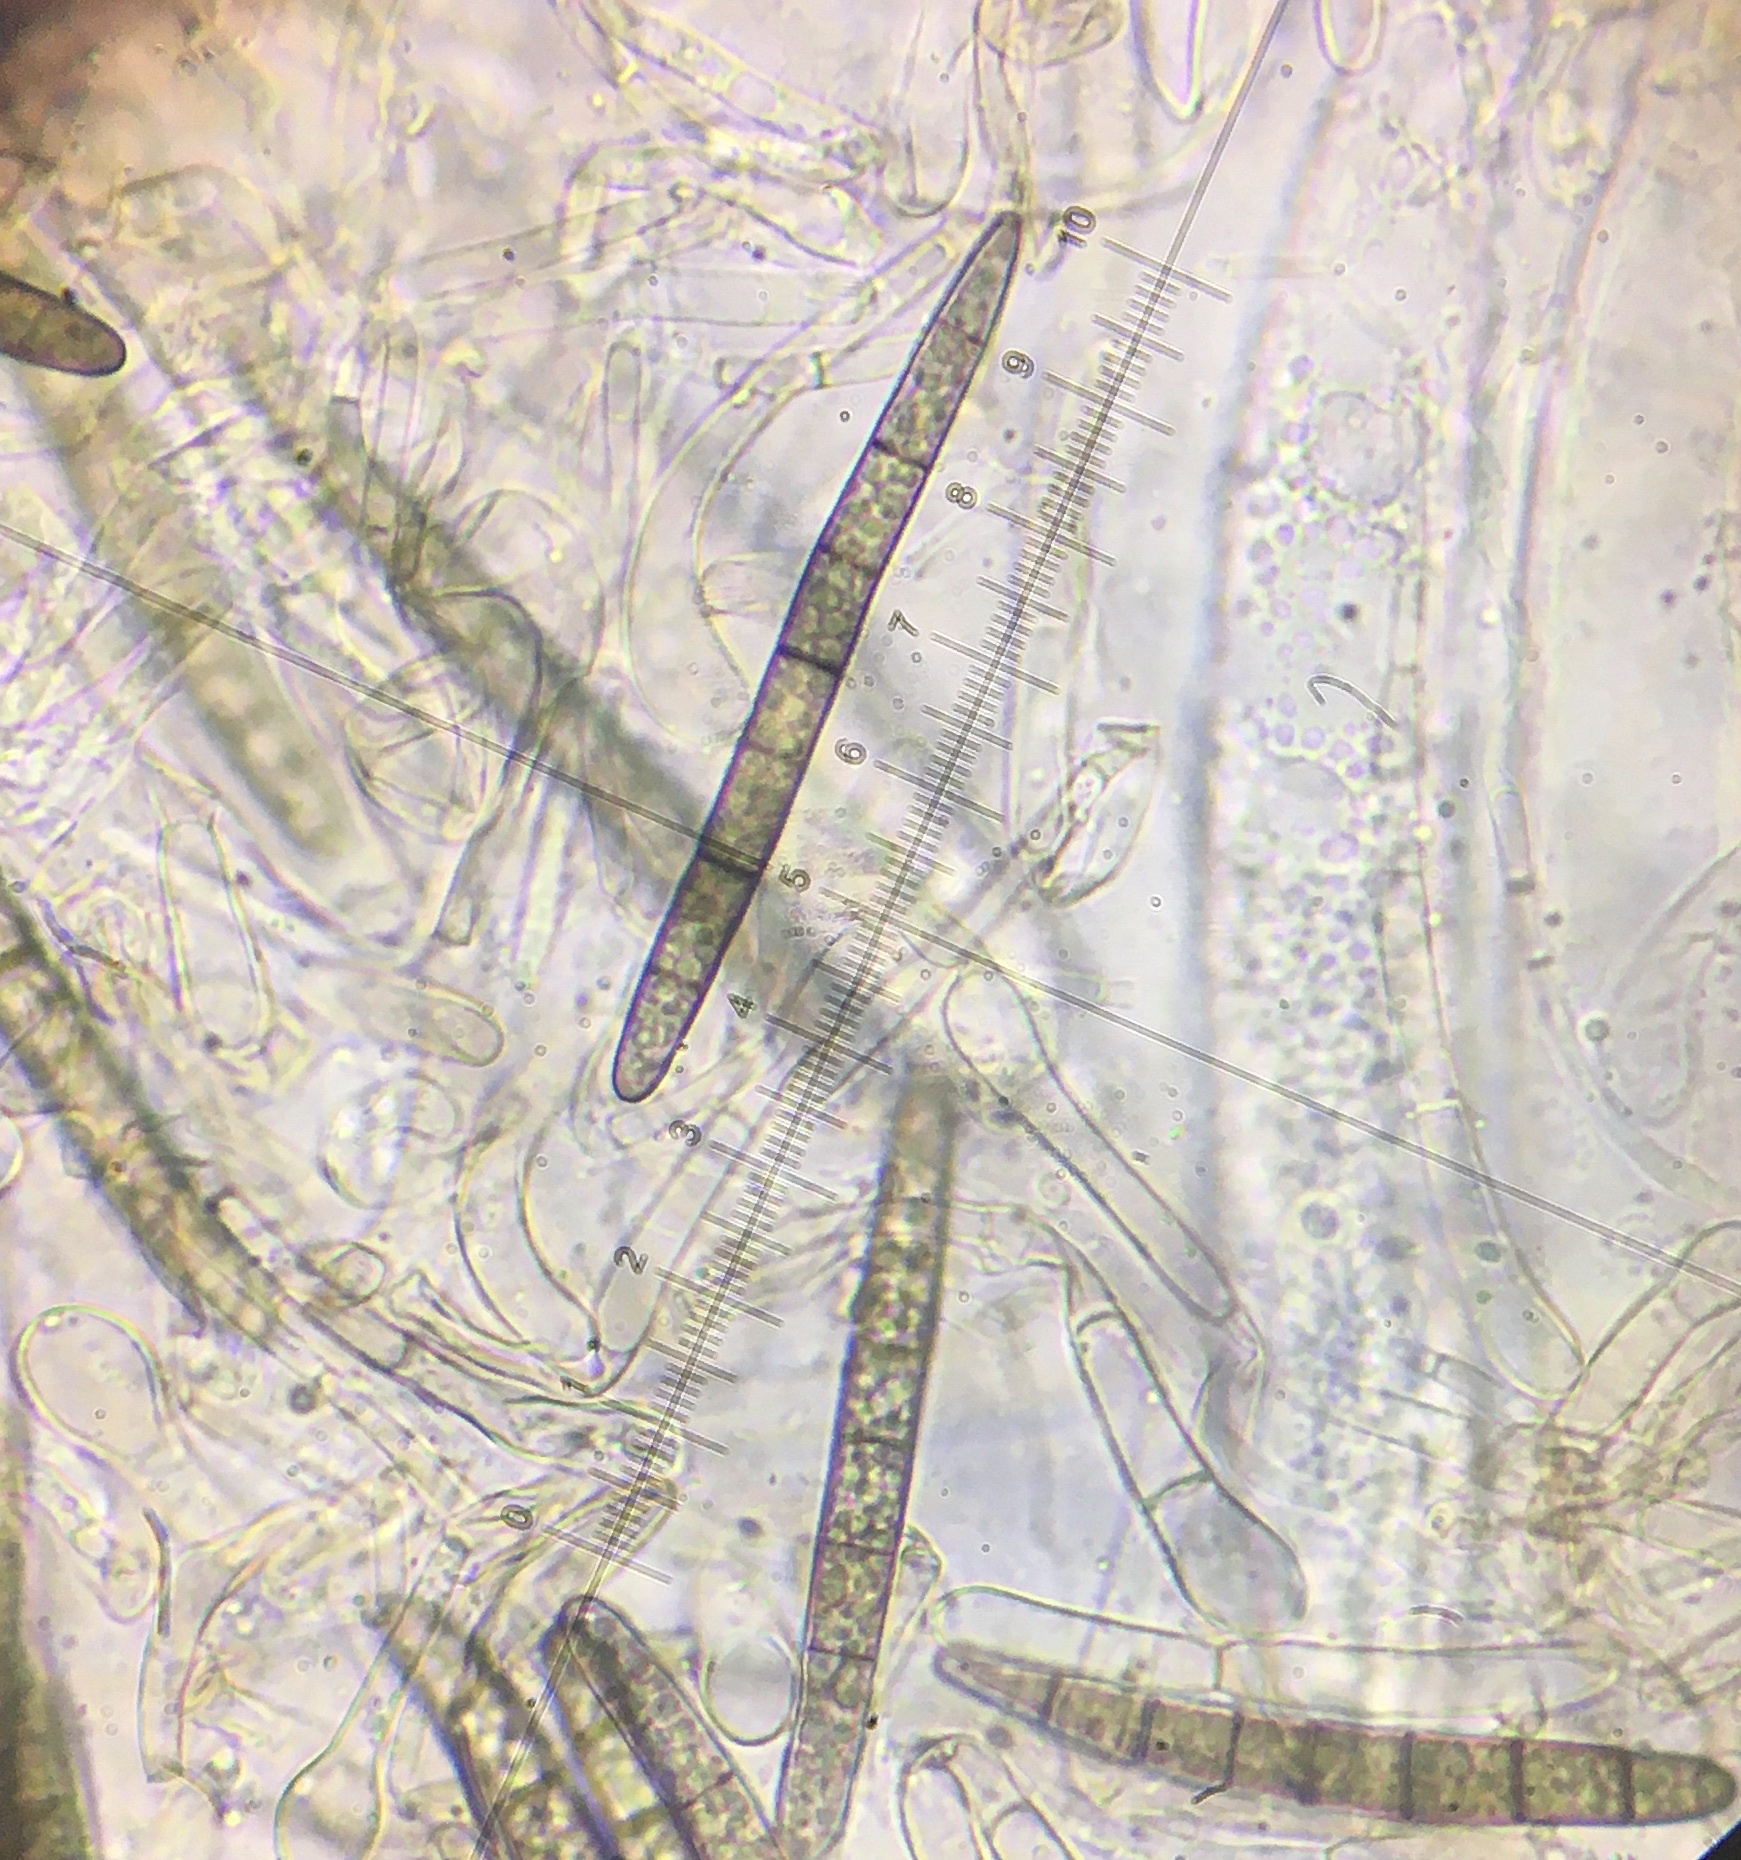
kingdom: Fungi
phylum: Ascomycota
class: Geoglossomycetes
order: Geoglossales
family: Geoglossaceae
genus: Geoglossum
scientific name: Geoglossum umbratile
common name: Plain earthtongue
